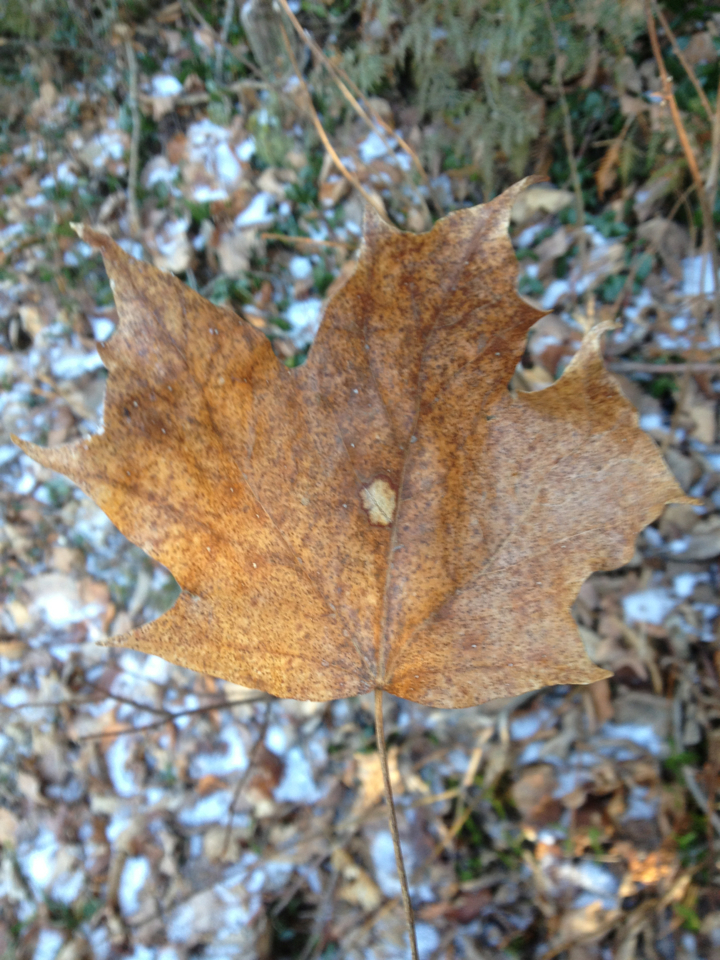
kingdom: Plantae
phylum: Tracheophyta
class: Magnoliopsida
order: Sapindales
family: Sapindaceae
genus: Acer
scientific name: Acer saccharum
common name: Sugar maple
